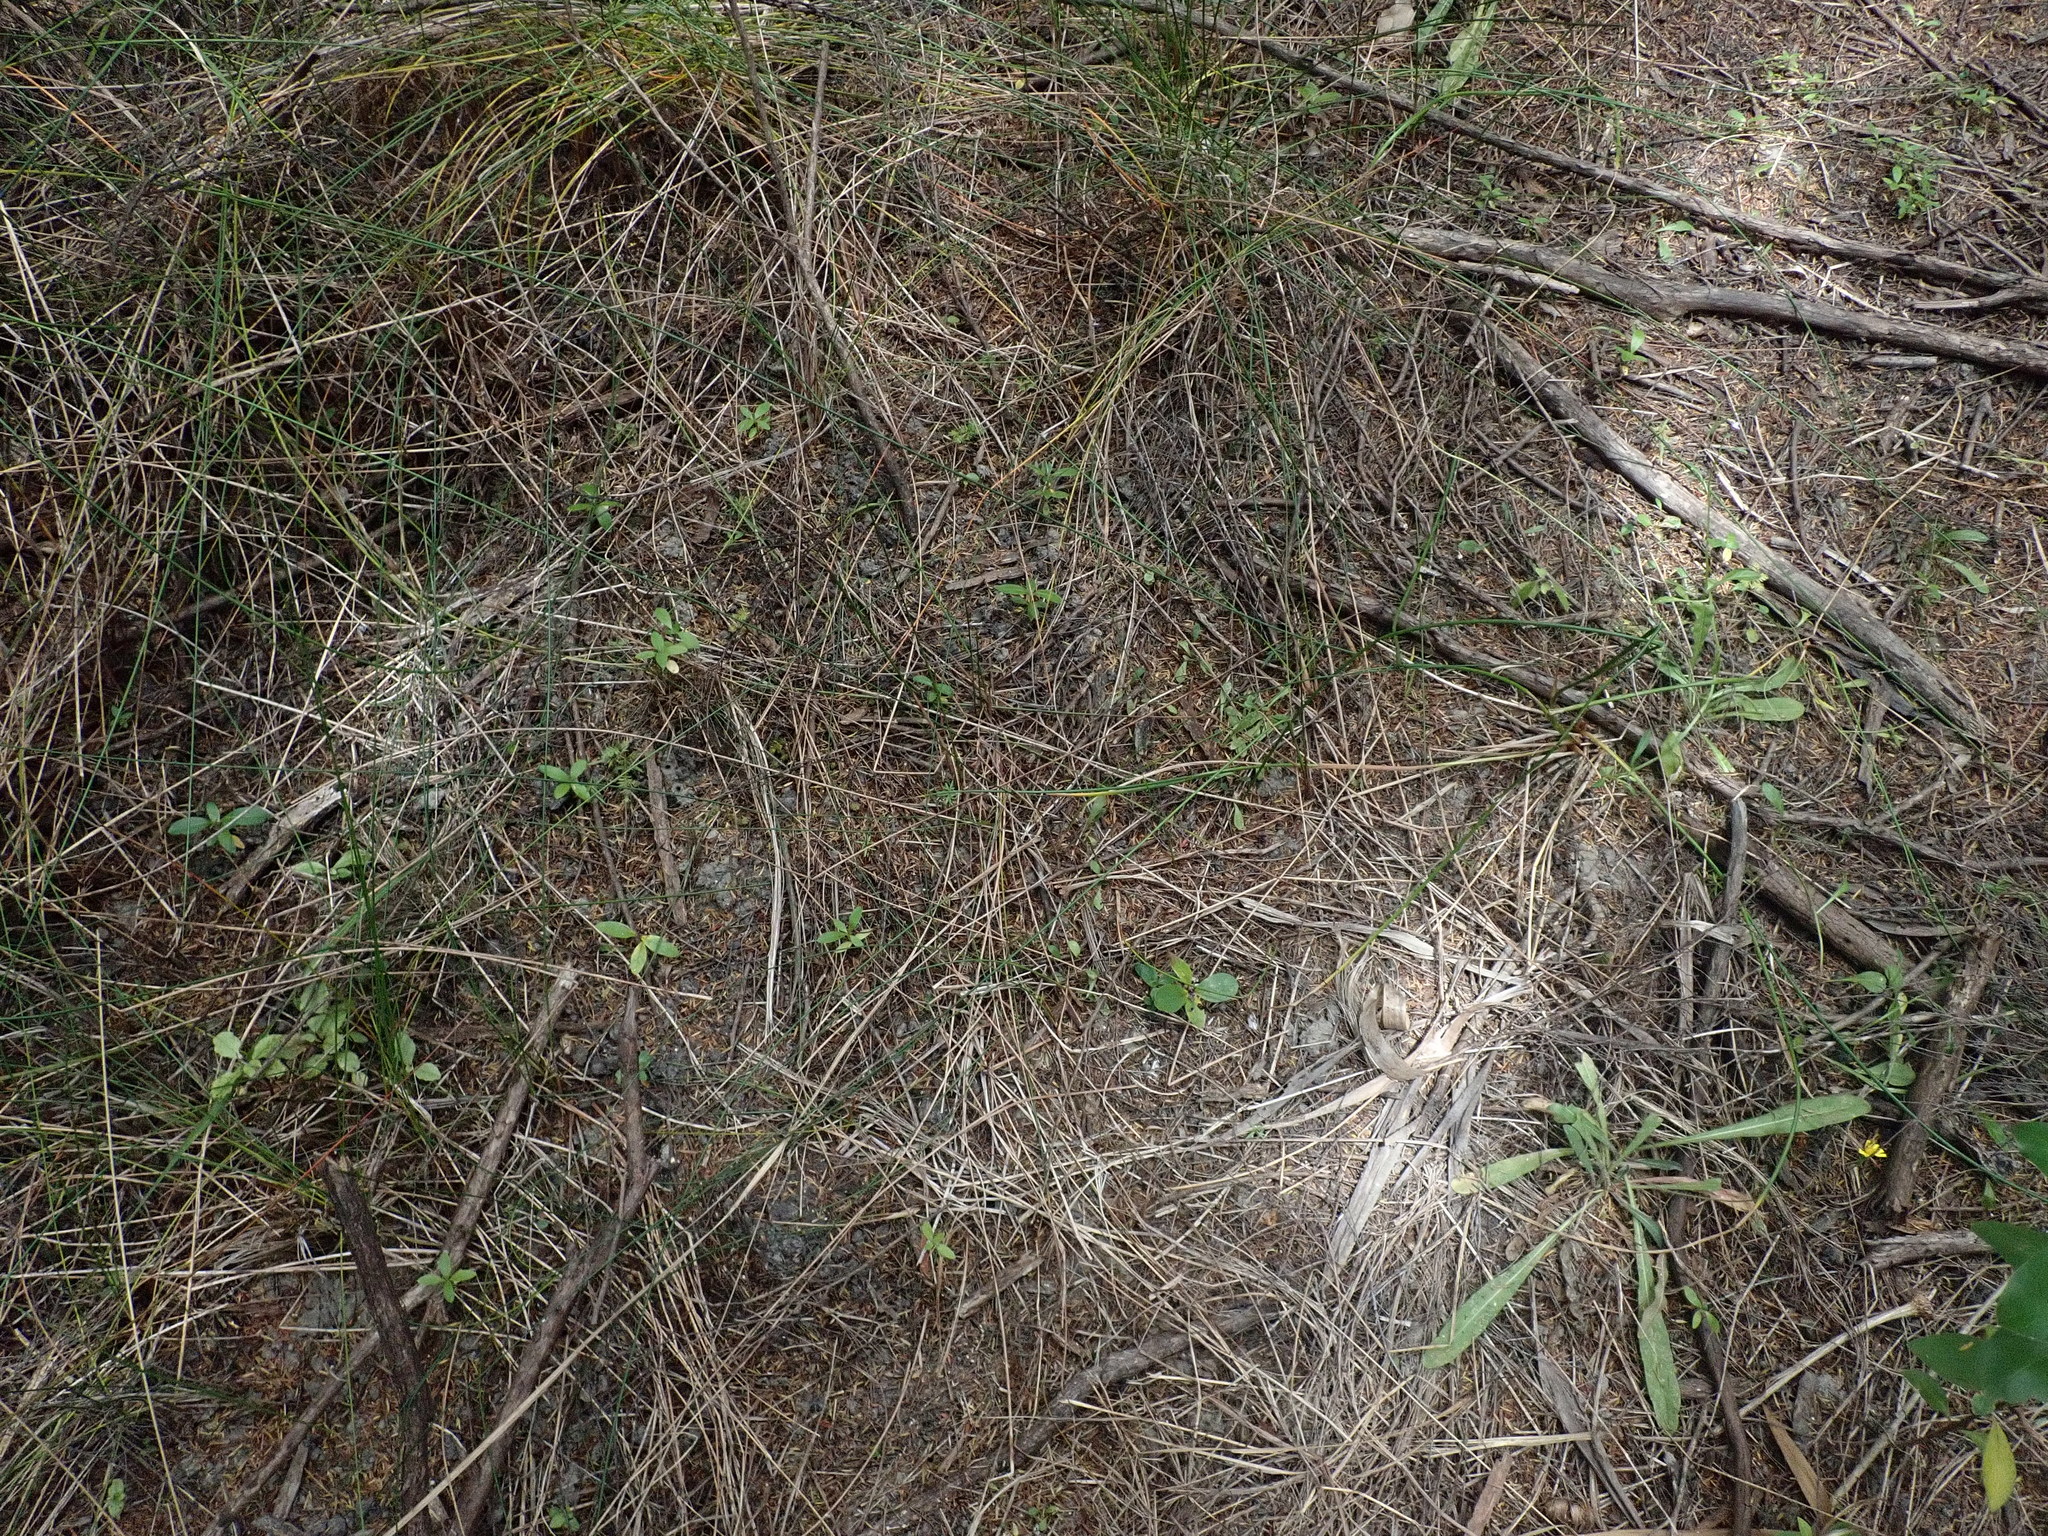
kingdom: Plantae
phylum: Tracheophyta
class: Magnoliopsida
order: Ericales
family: Primulaceae
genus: Myrsine
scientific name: Myrsine australis
